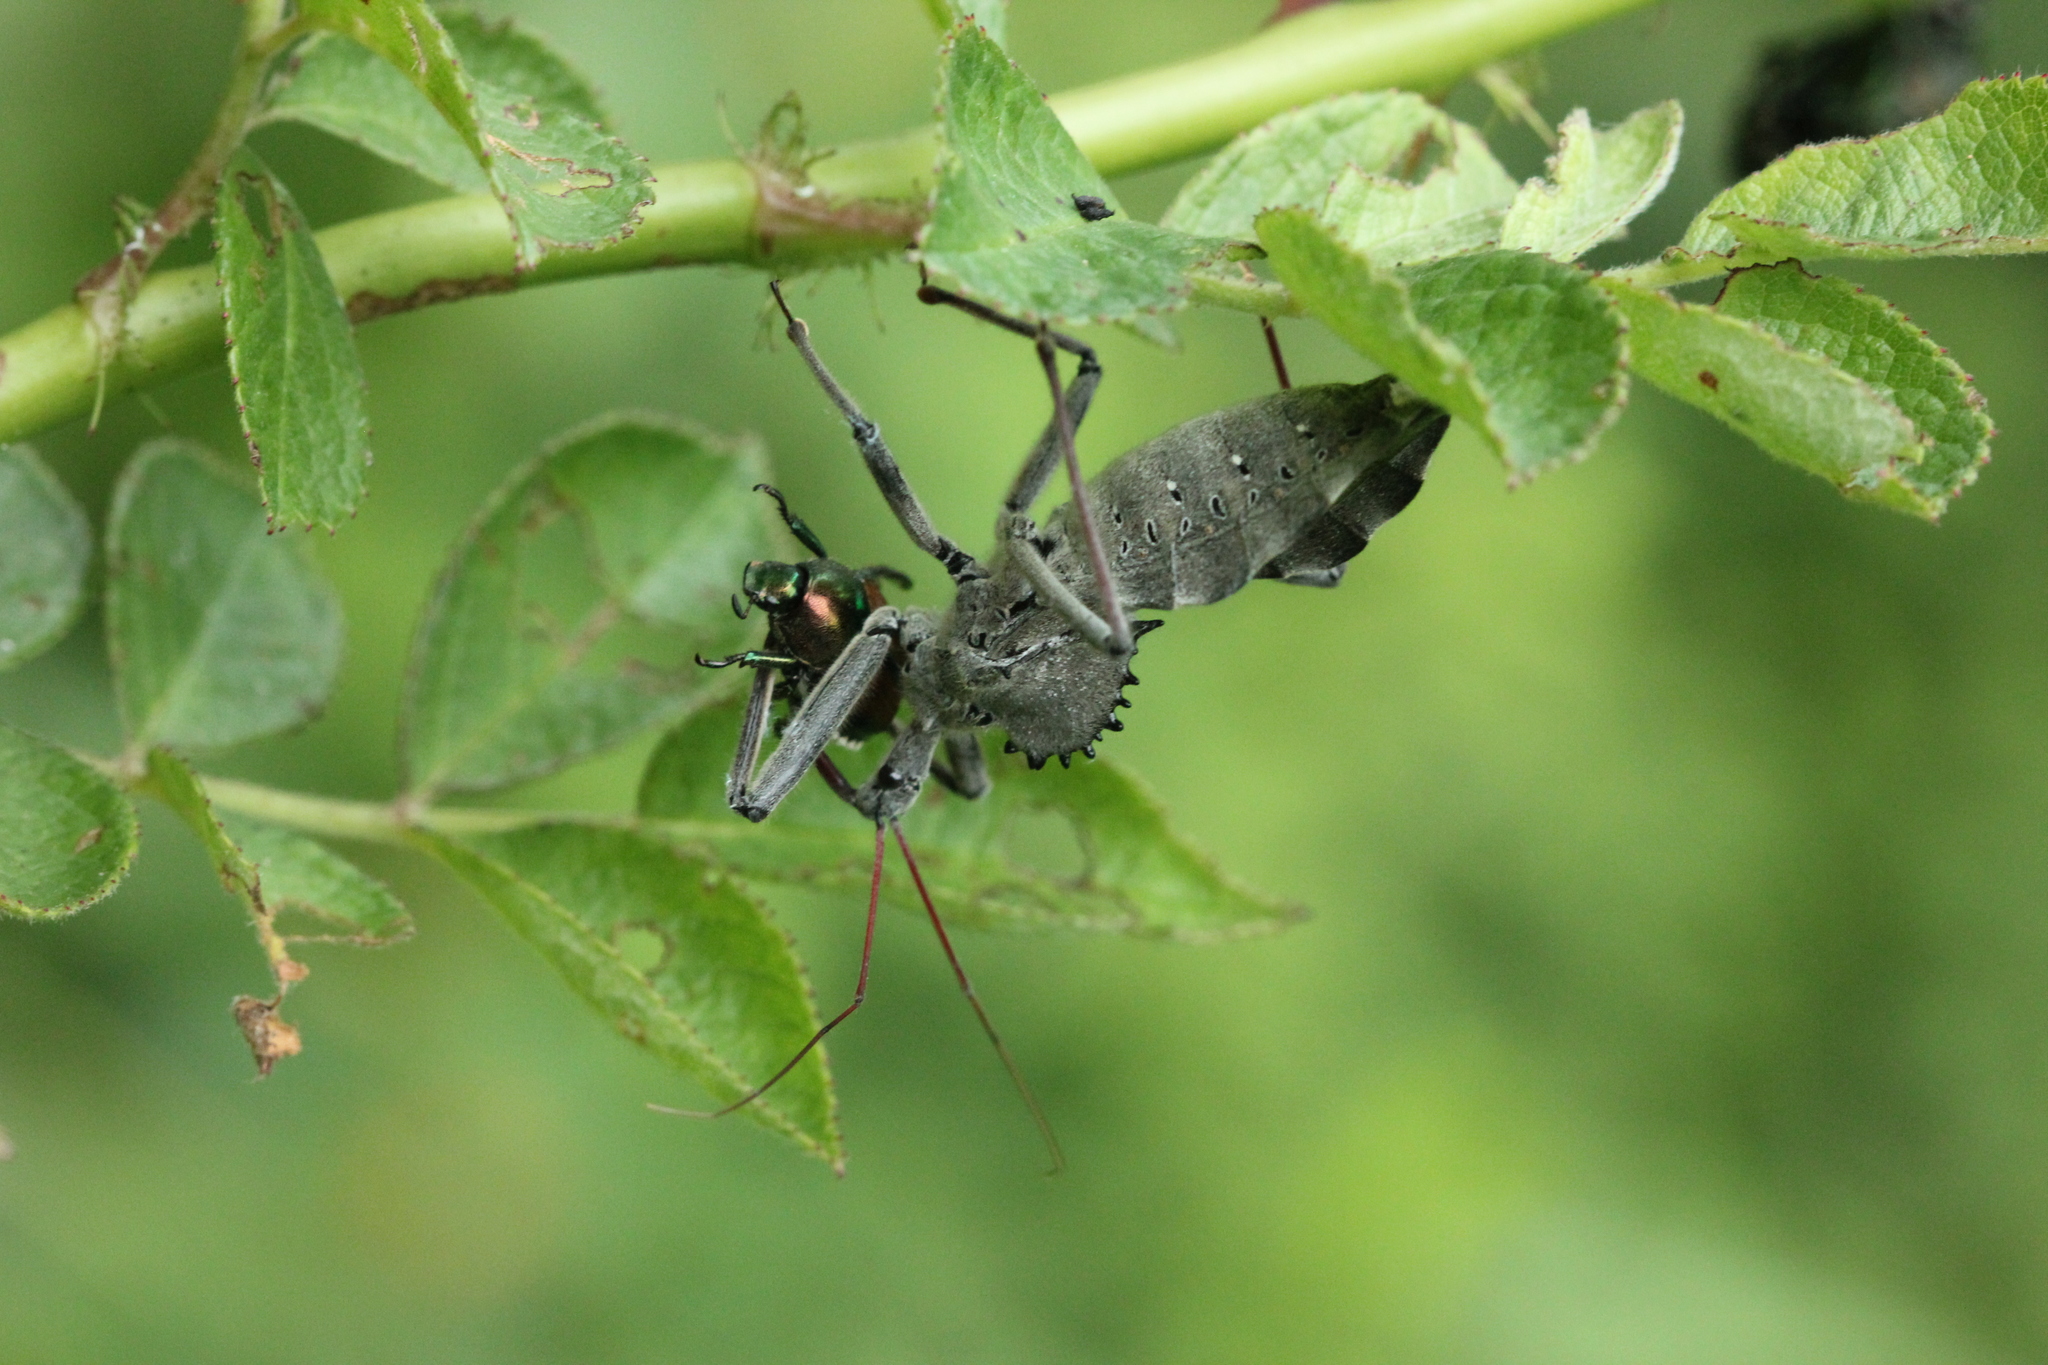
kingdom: Animalia
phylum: Arthropoda
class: Insecta
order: Hemiptera
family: Reduviidae
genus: Arilus
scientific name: Arilus cristatus
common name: North american wheel bug
